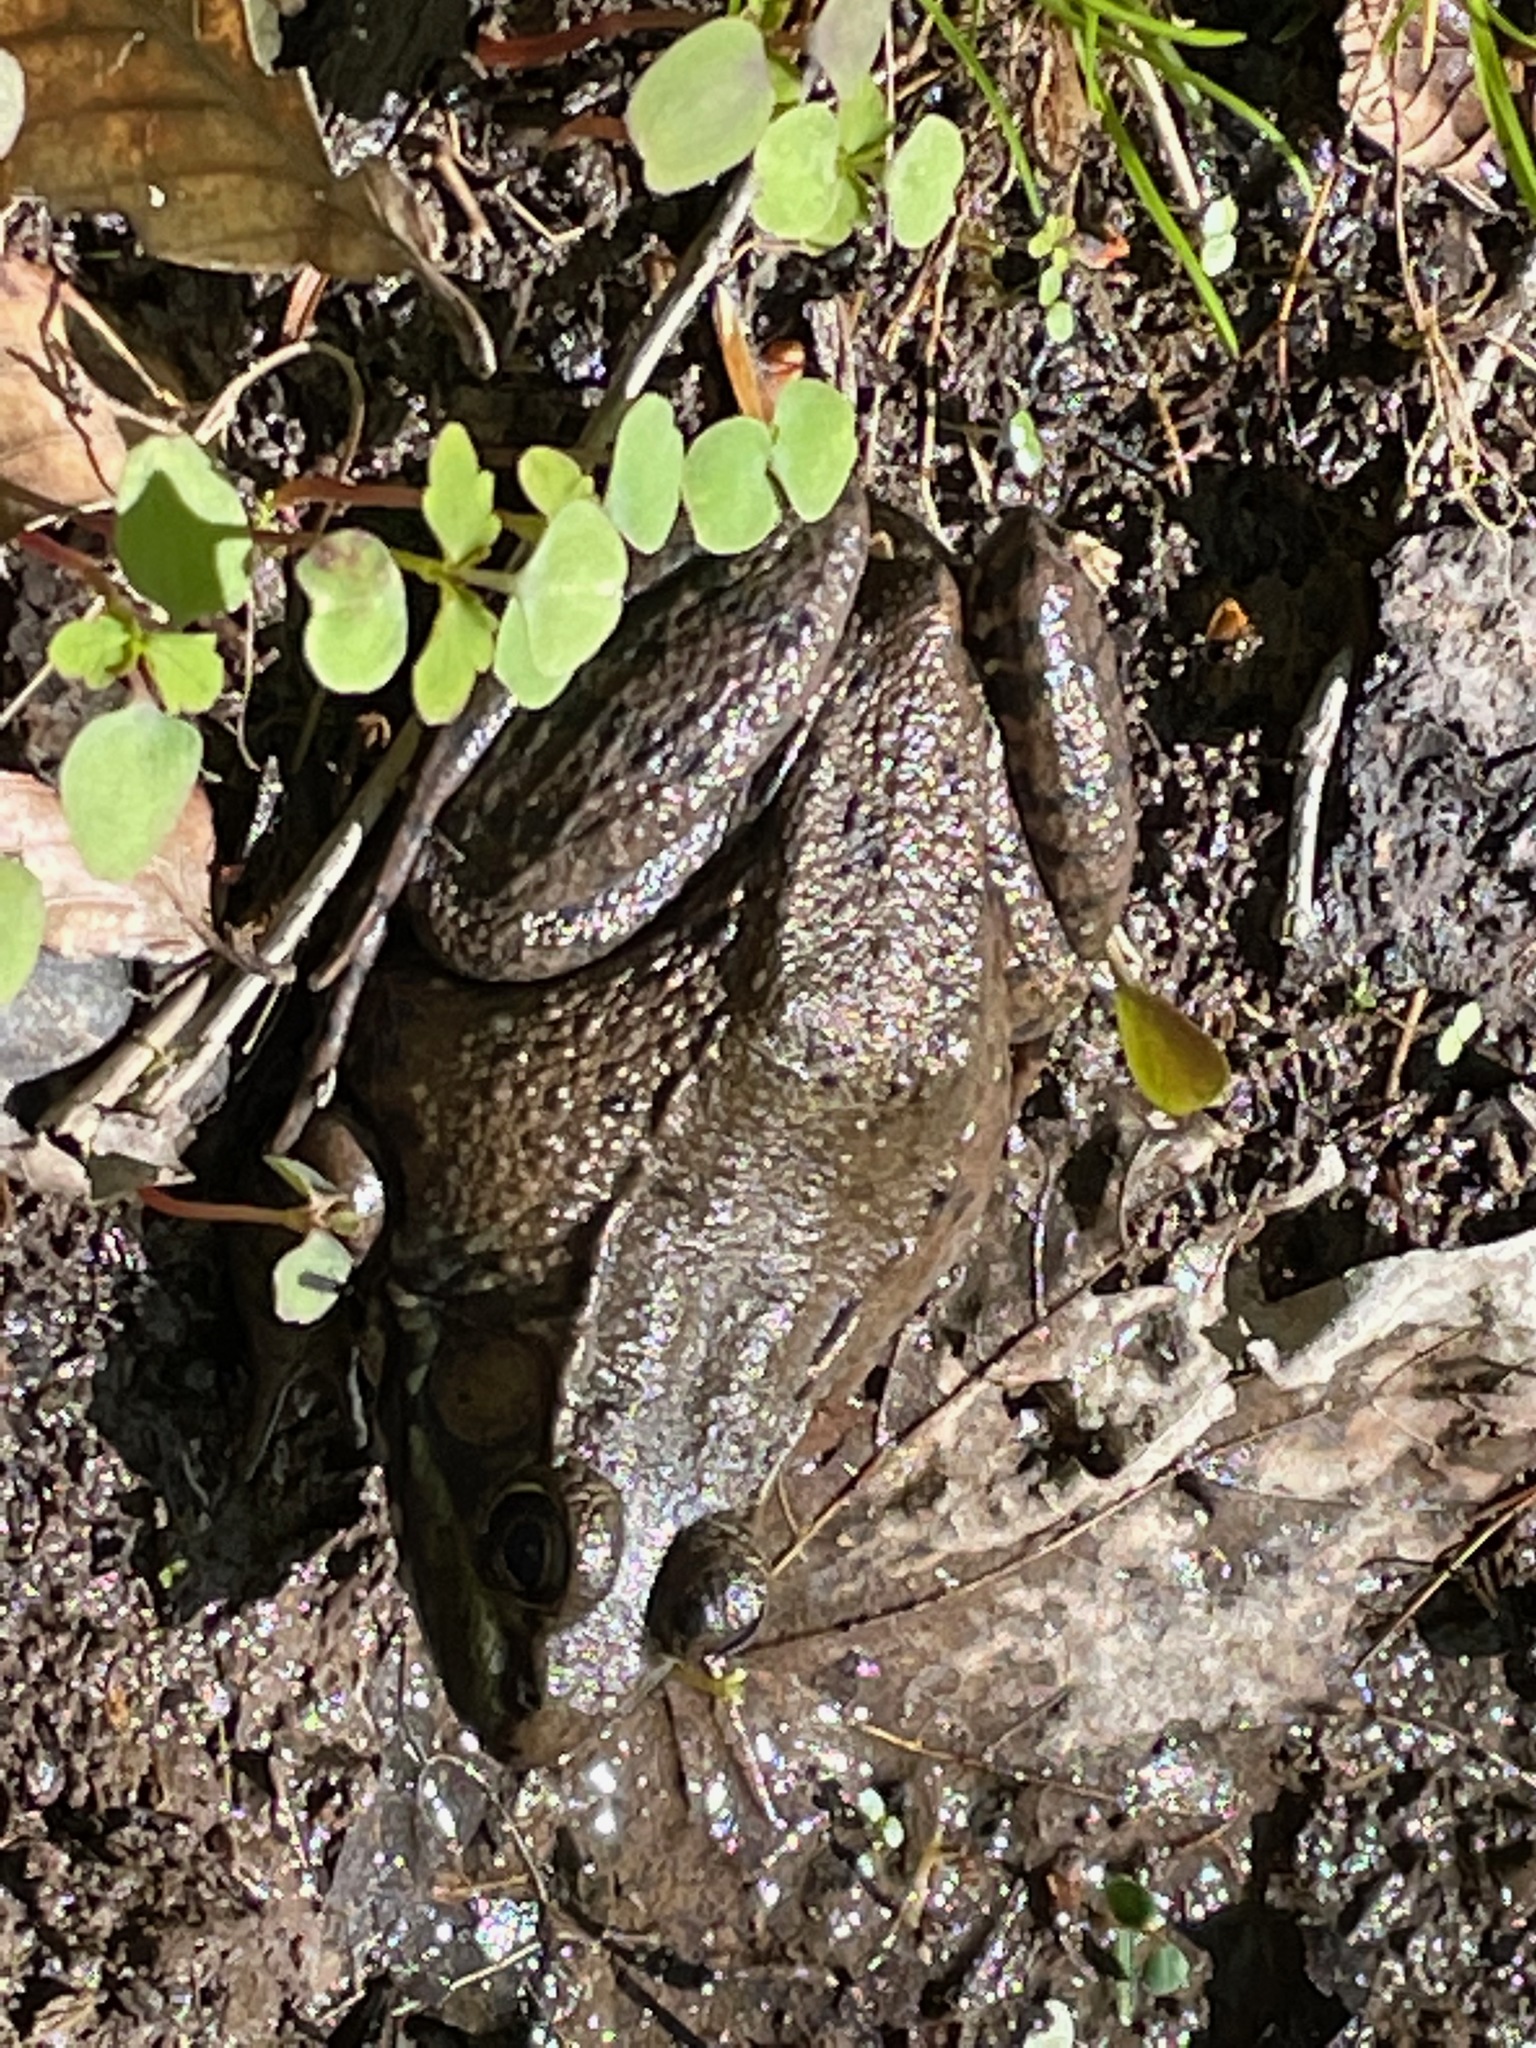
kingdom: Animalia
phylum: Chordata
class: Amphibia
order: Anura
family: Ranidae
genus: Lithobates
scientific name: Lithobates clamitans
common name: Green frog
